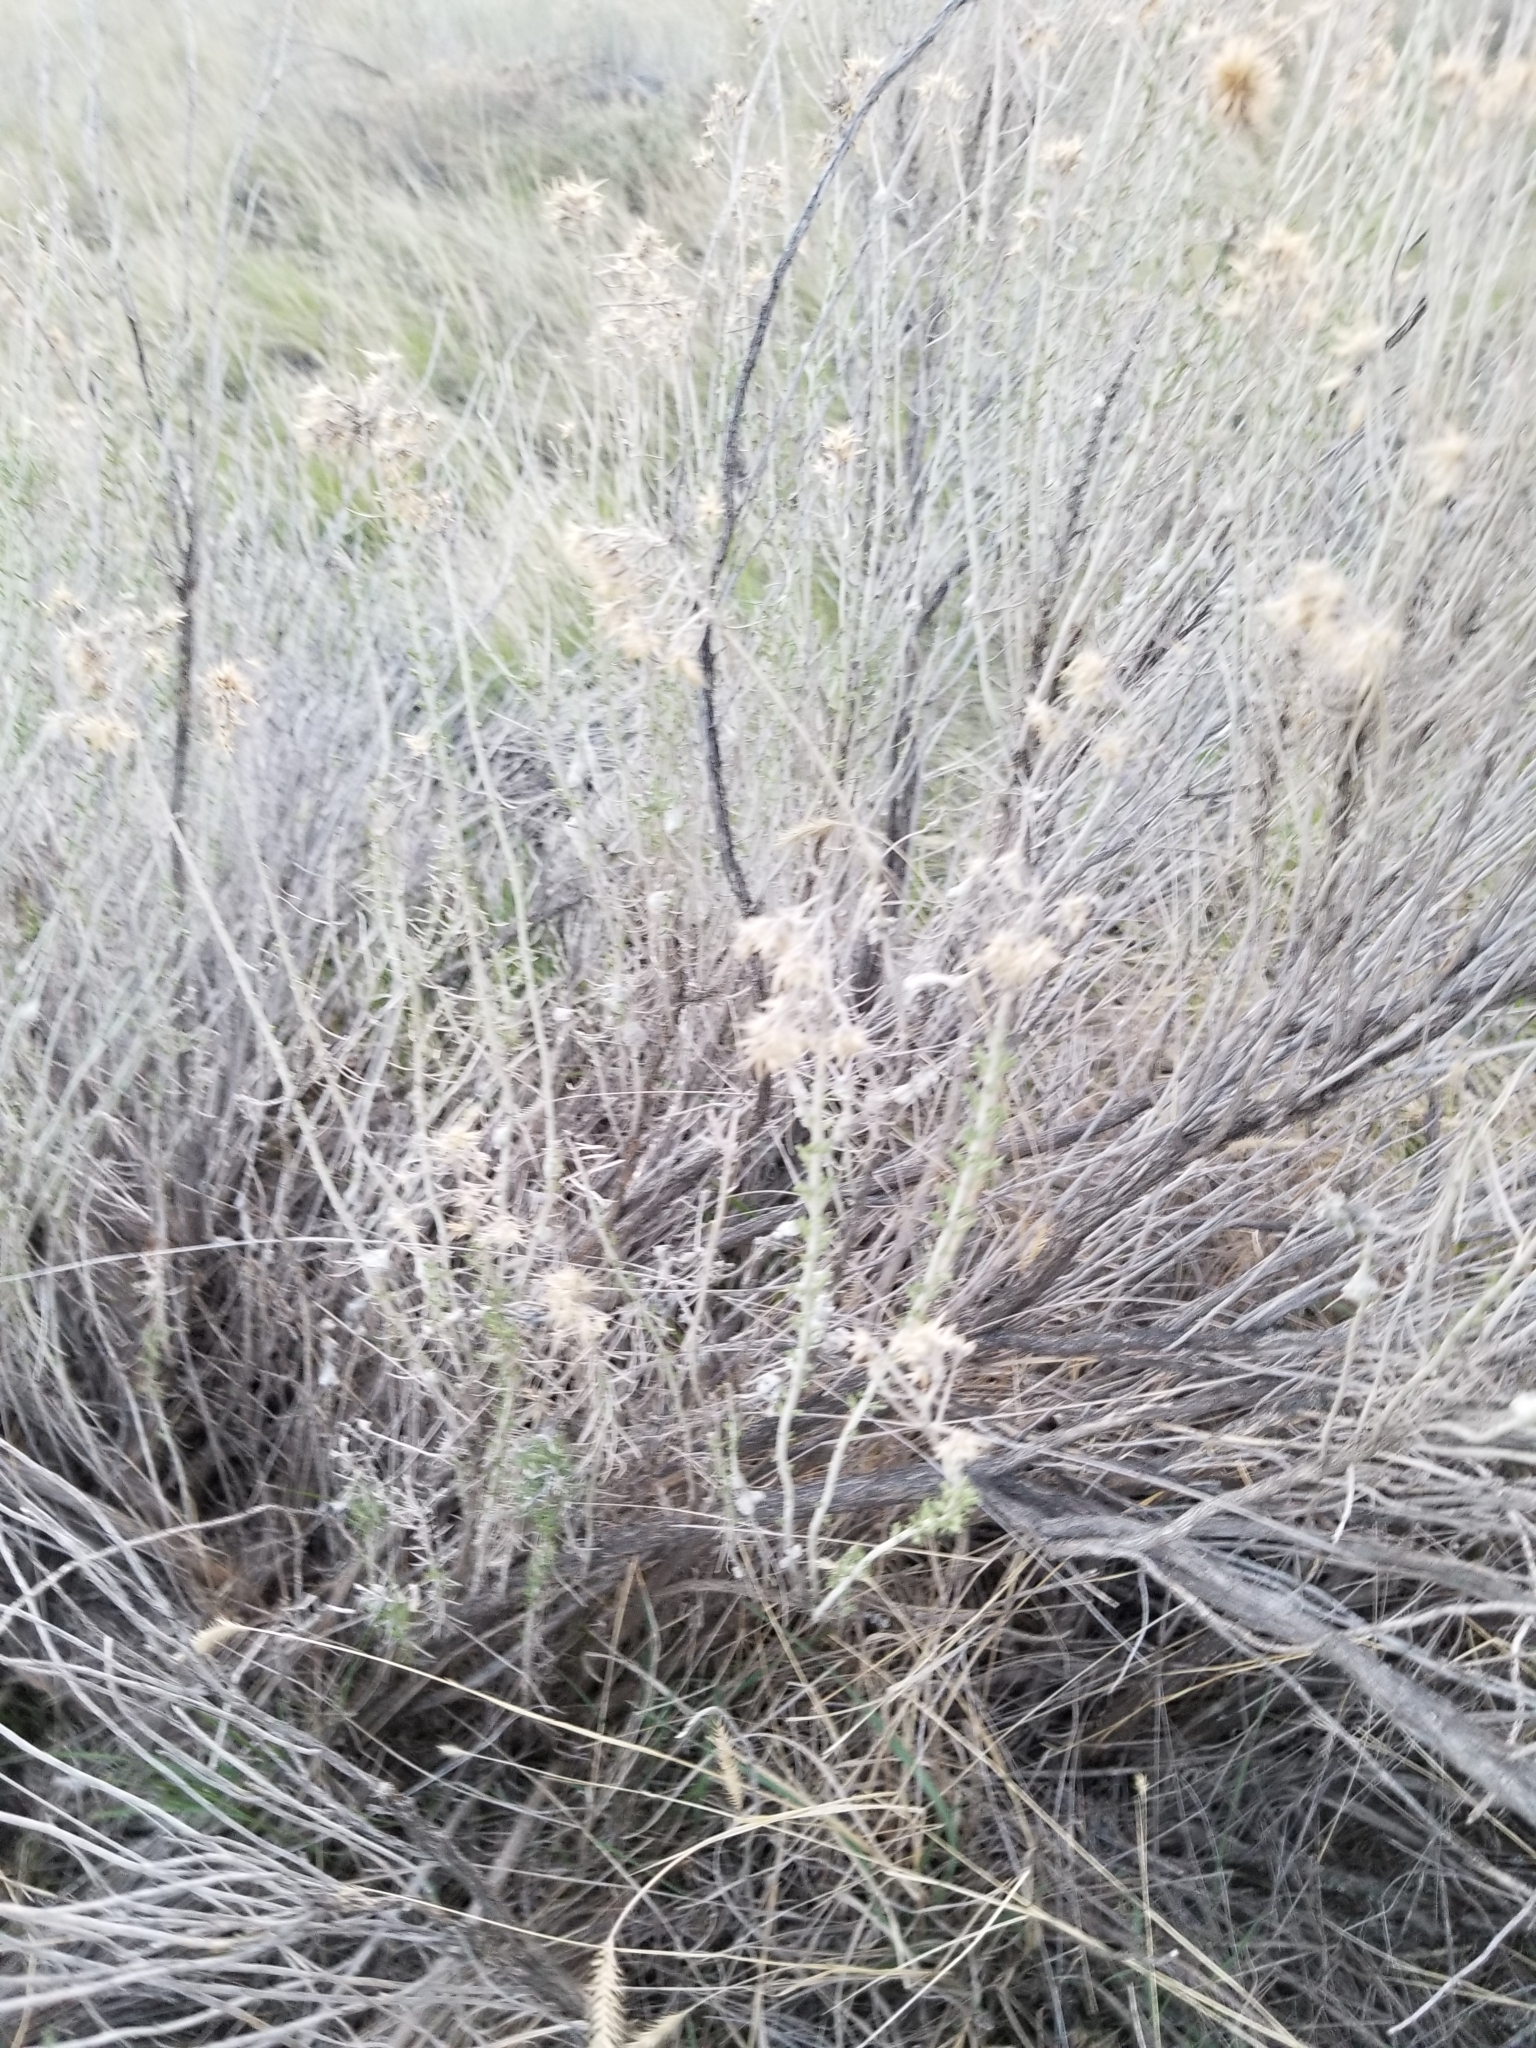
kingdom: Plantae
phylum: Tracheophyta
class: Magnoliopsida
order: Asterales
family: Asteraceae
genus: Ericameria
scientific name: Ericameria nauseosa
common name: Rubber rabbitbrush
